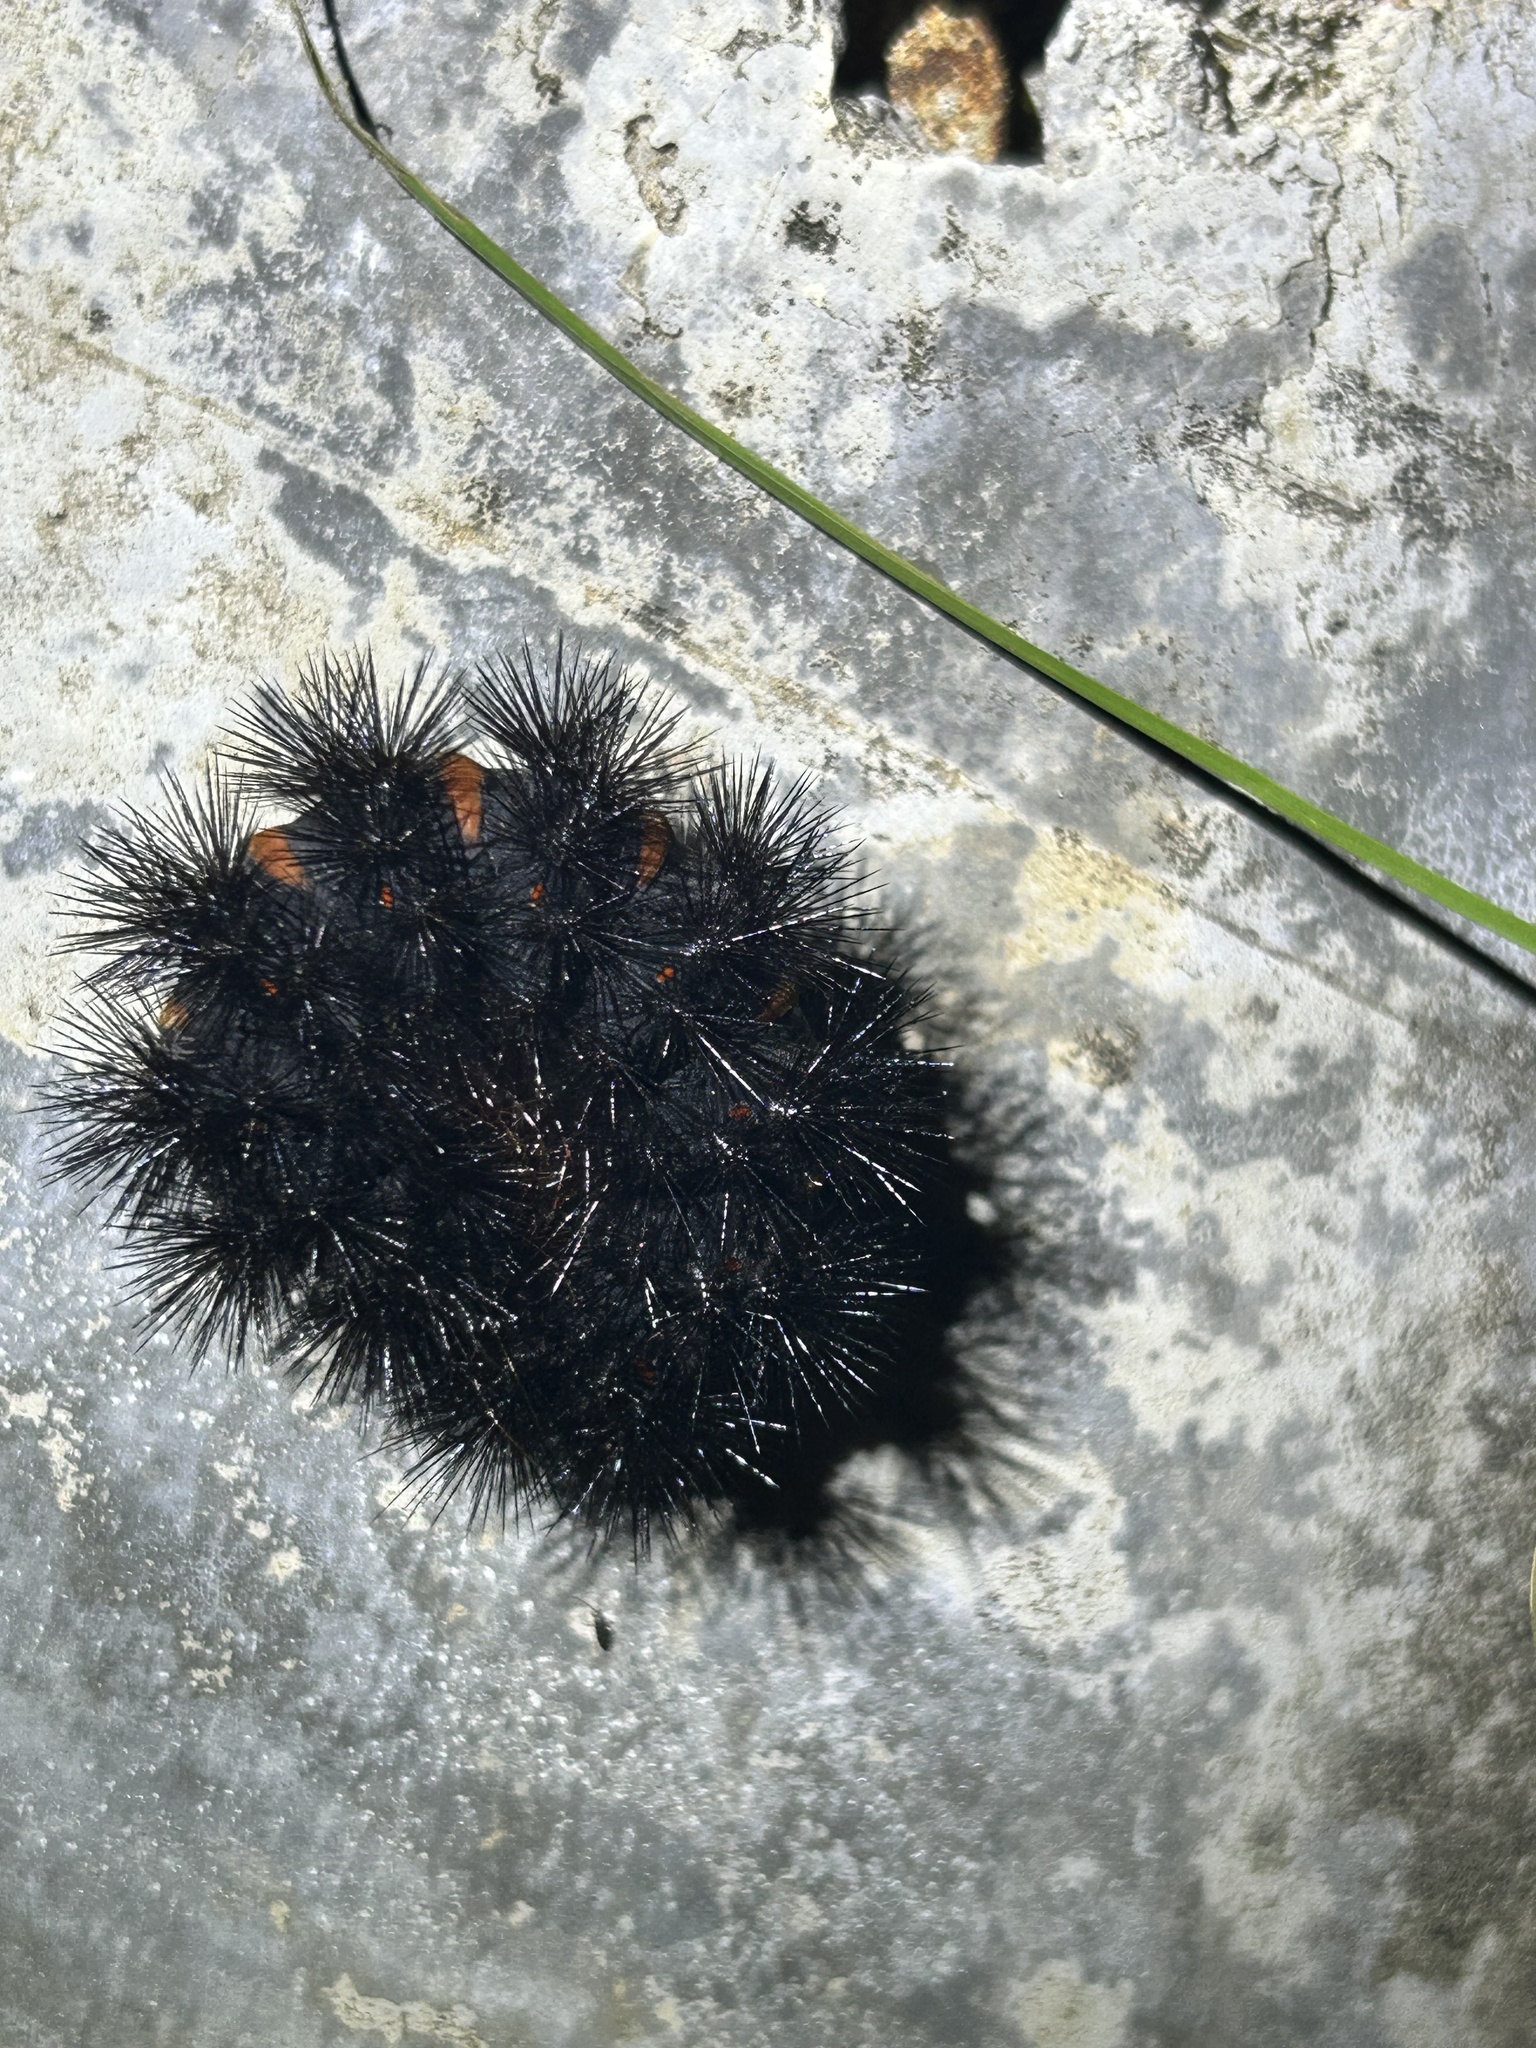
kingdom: Animalia
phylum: Arthropoda
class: Insecta
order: Lepidoptera
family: Erebidae
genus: Hypercompe
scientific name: Hypercompe scribonia
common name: Giant leopard moth
